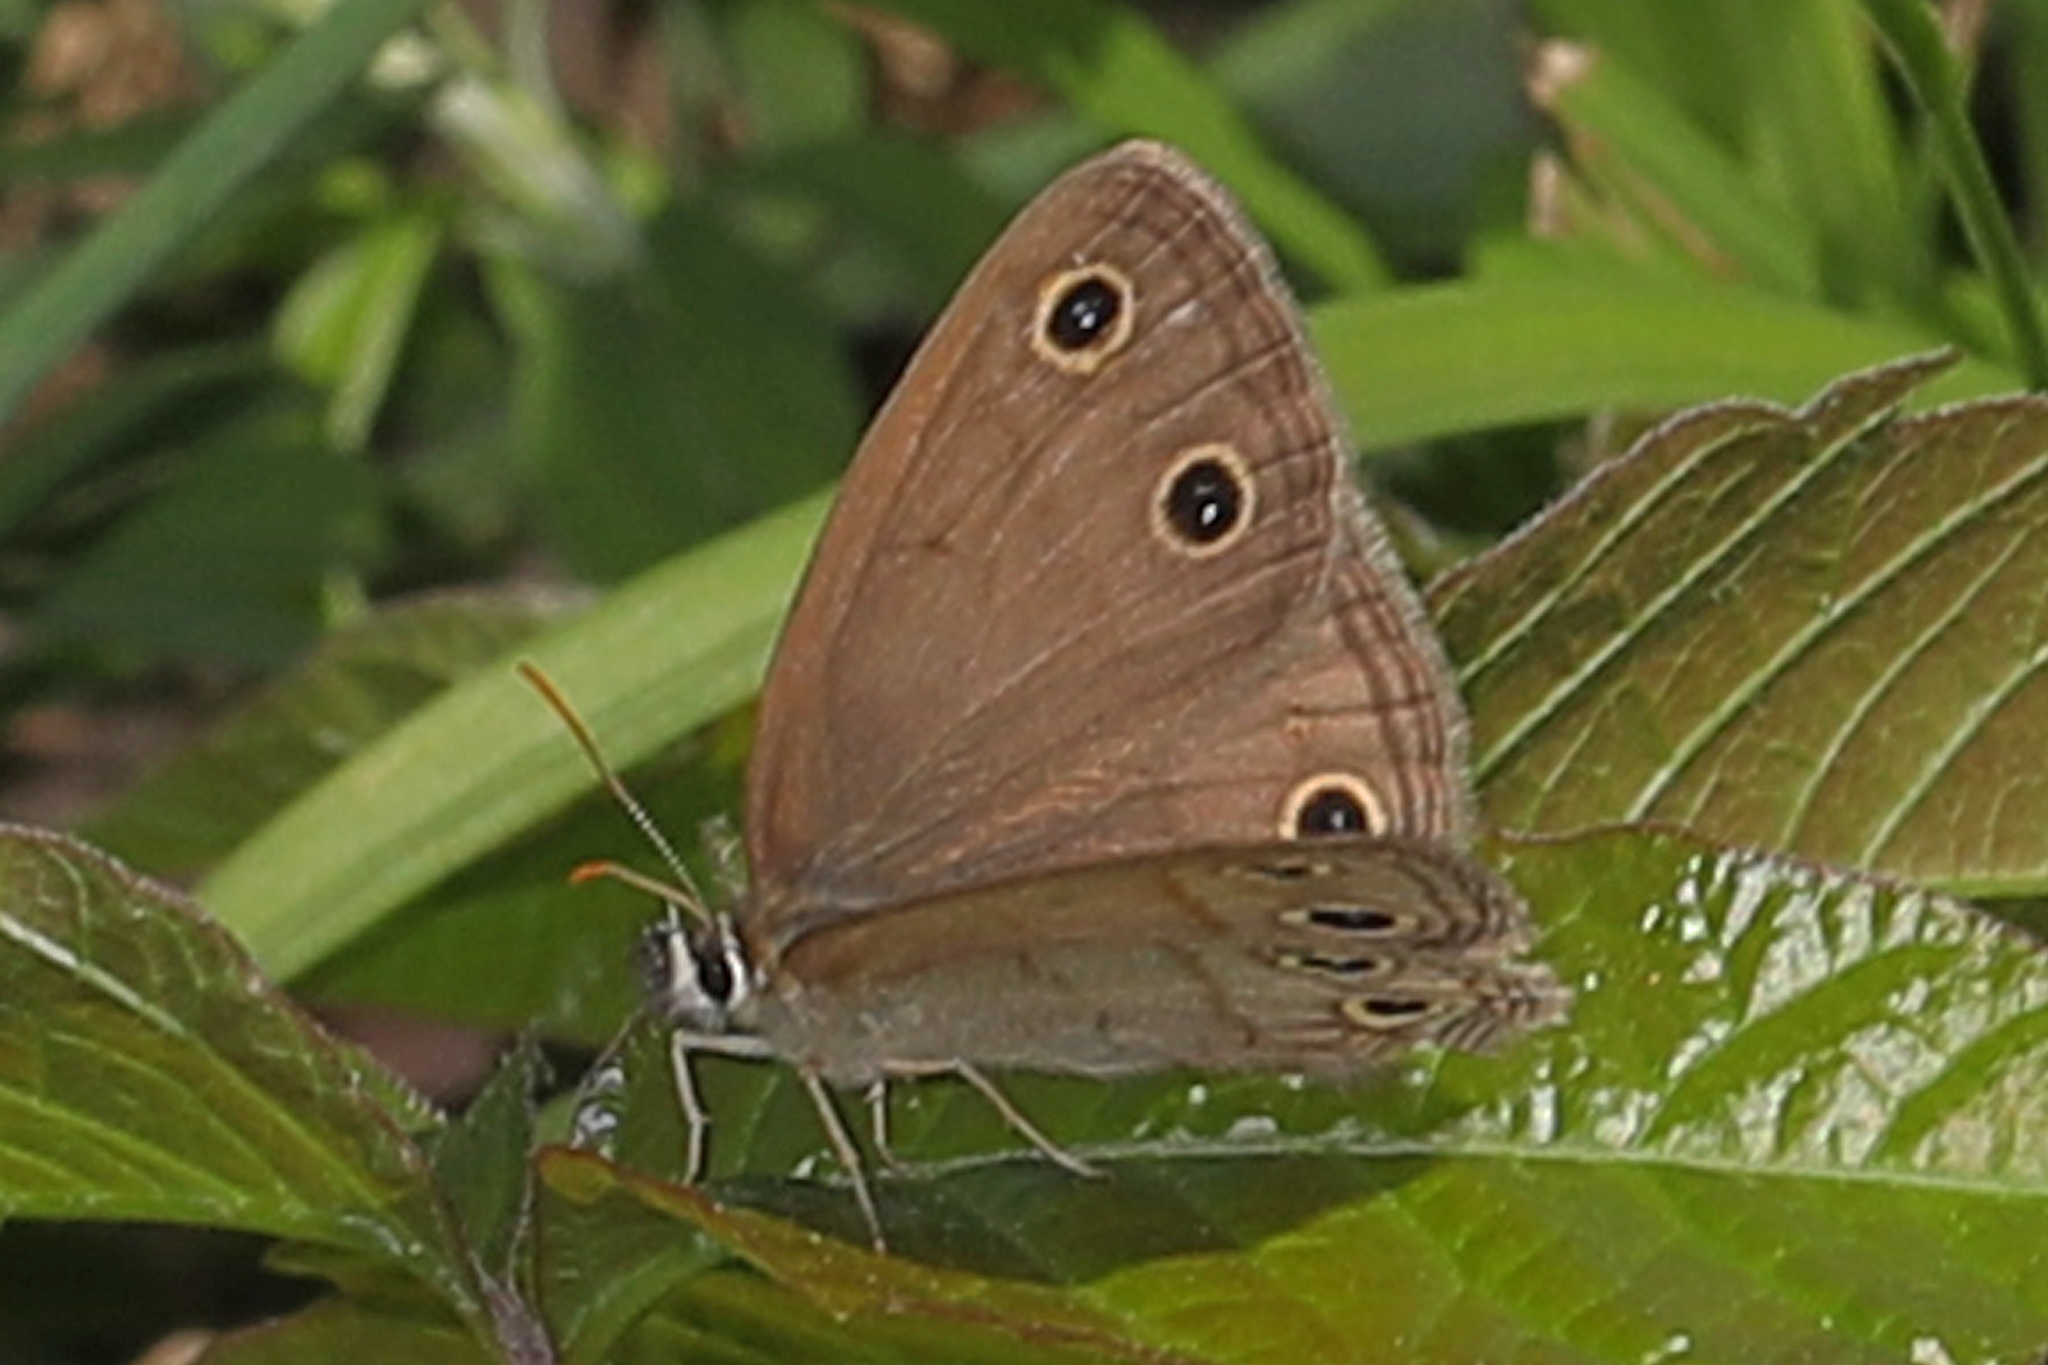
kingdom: Animalia
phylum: Arthropoda
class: Insecta
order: Lepidoptera
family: Nymphalidae
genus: Euptychia
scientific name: Euptychia cymela
